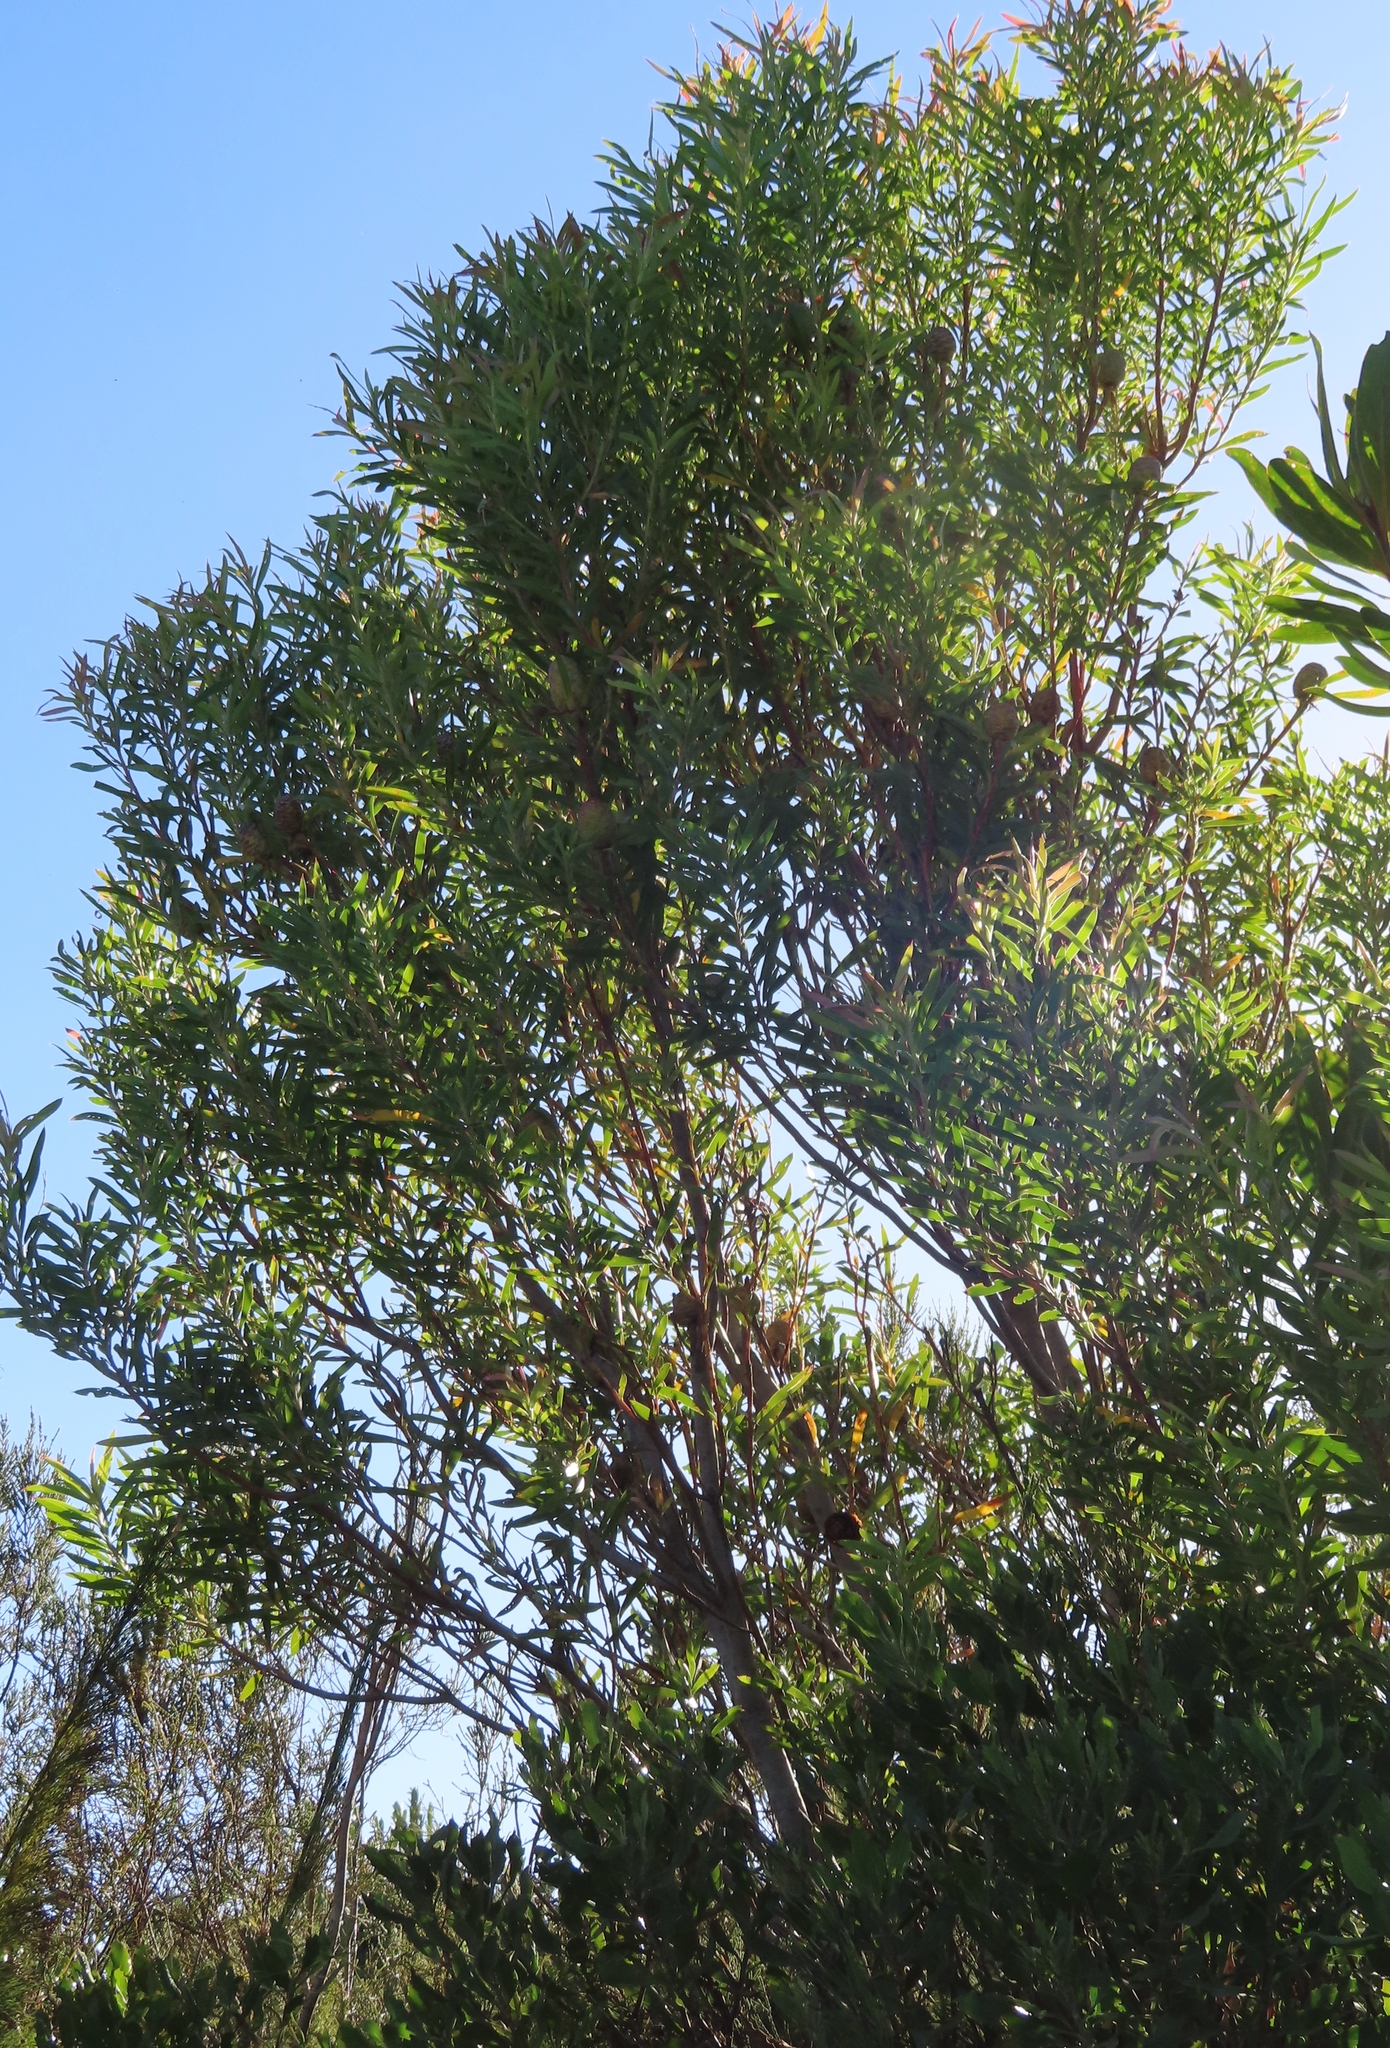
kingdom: Plantae
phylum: Tracheophyta
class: Magnoliopsida
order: Proteales
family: Proteaceae
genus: Leucadendron
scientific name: Leucadendron salicifolium
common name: Common stream conebush
